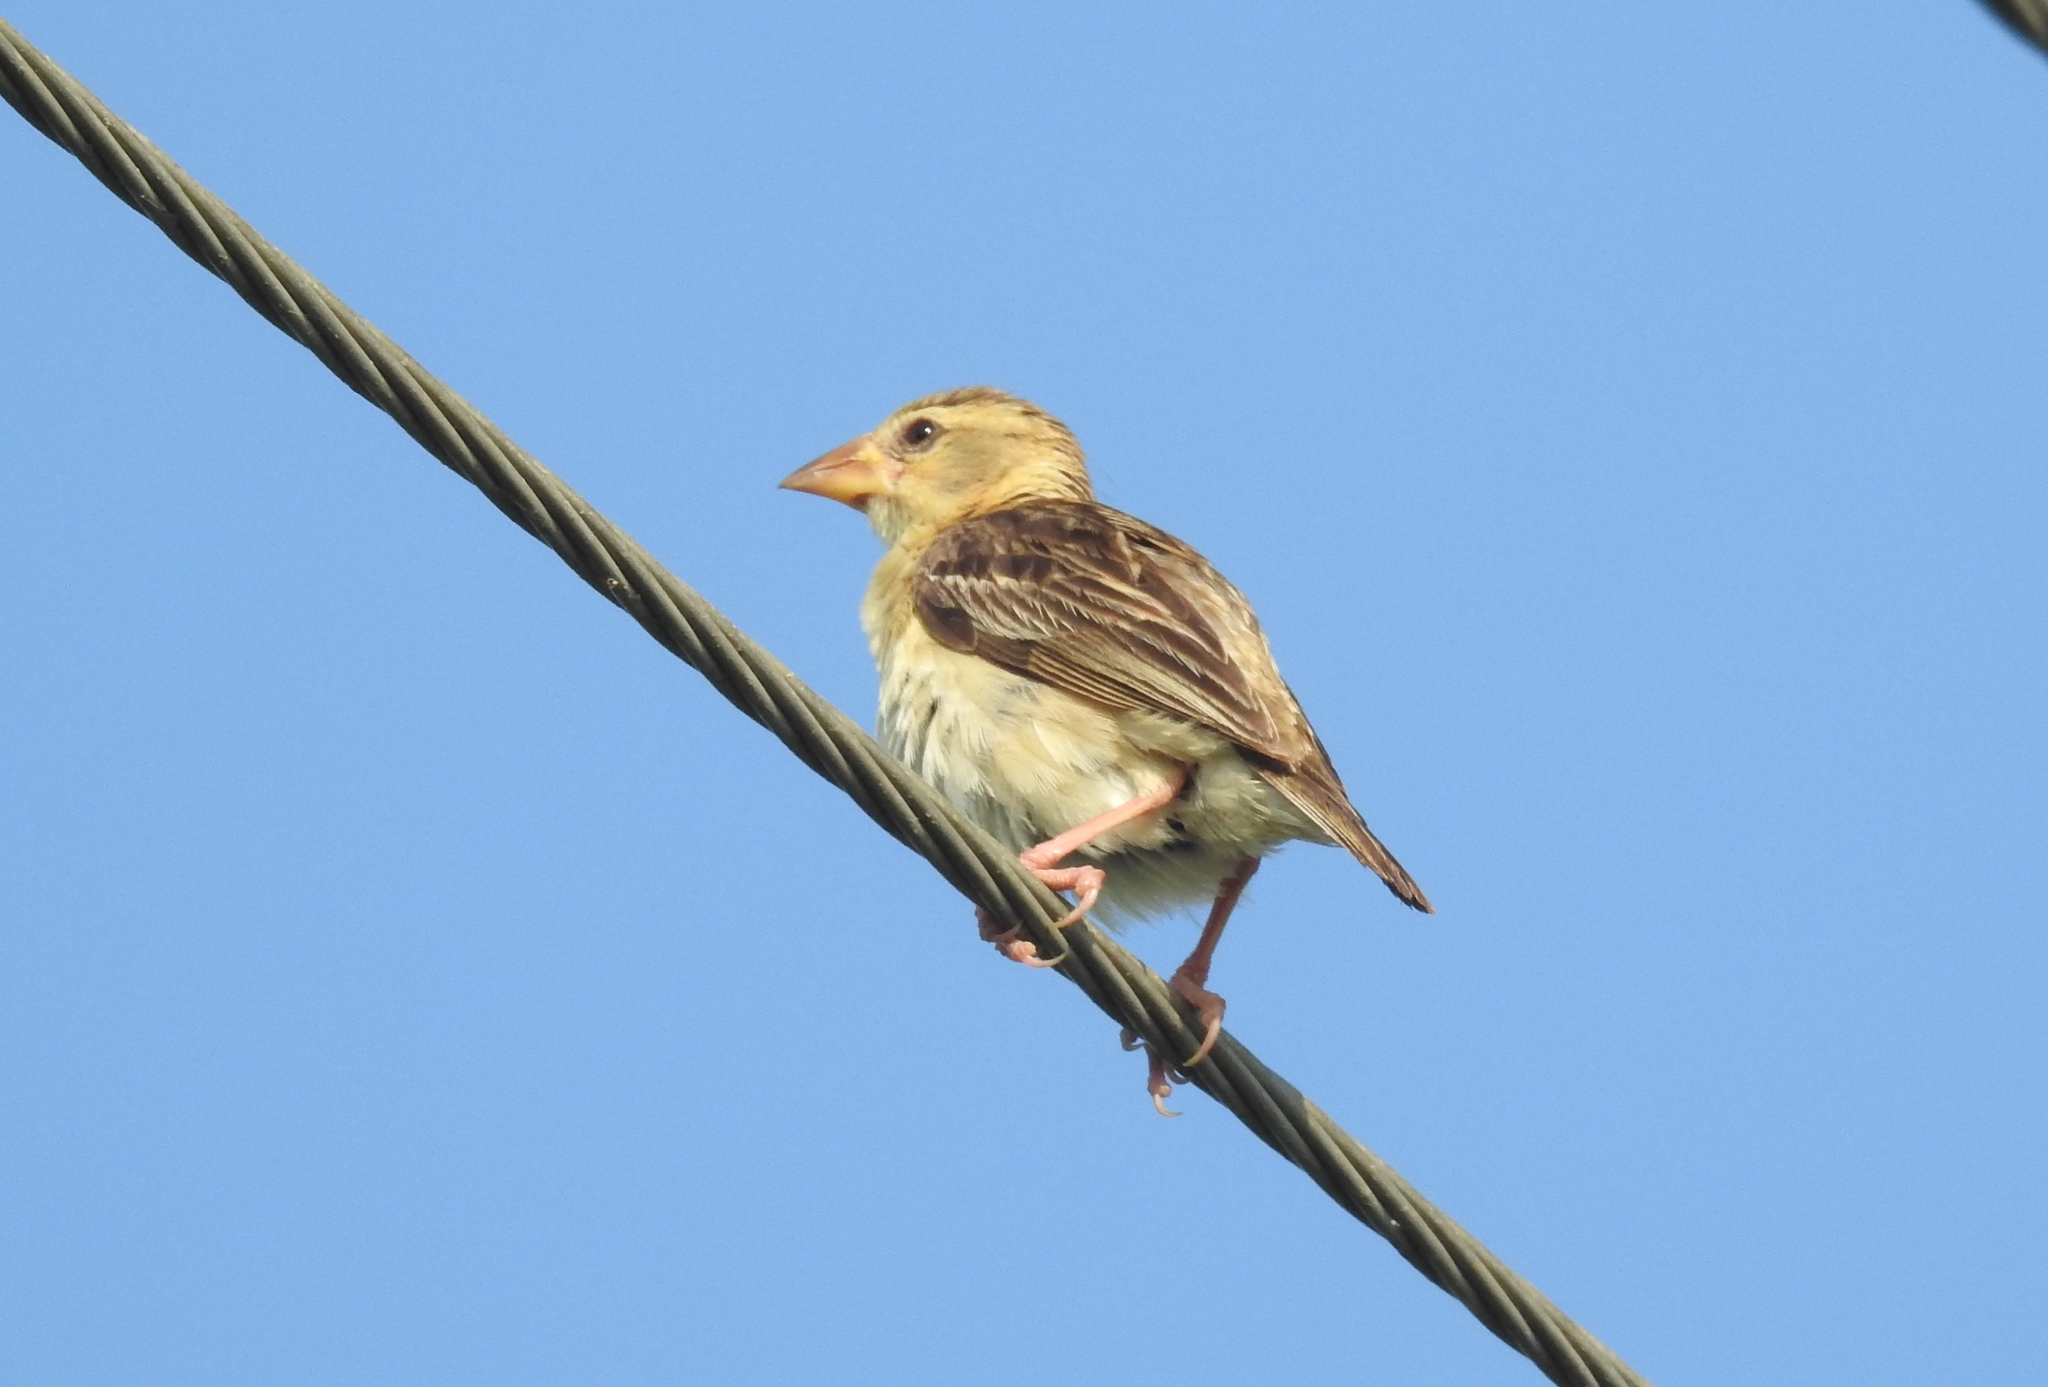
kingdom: Animalia
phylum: Chordata
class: Aves
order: Passeriformes
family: Ploceidae
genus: Ploceus
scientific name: Ploceus philippinus
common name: Baya weaver
